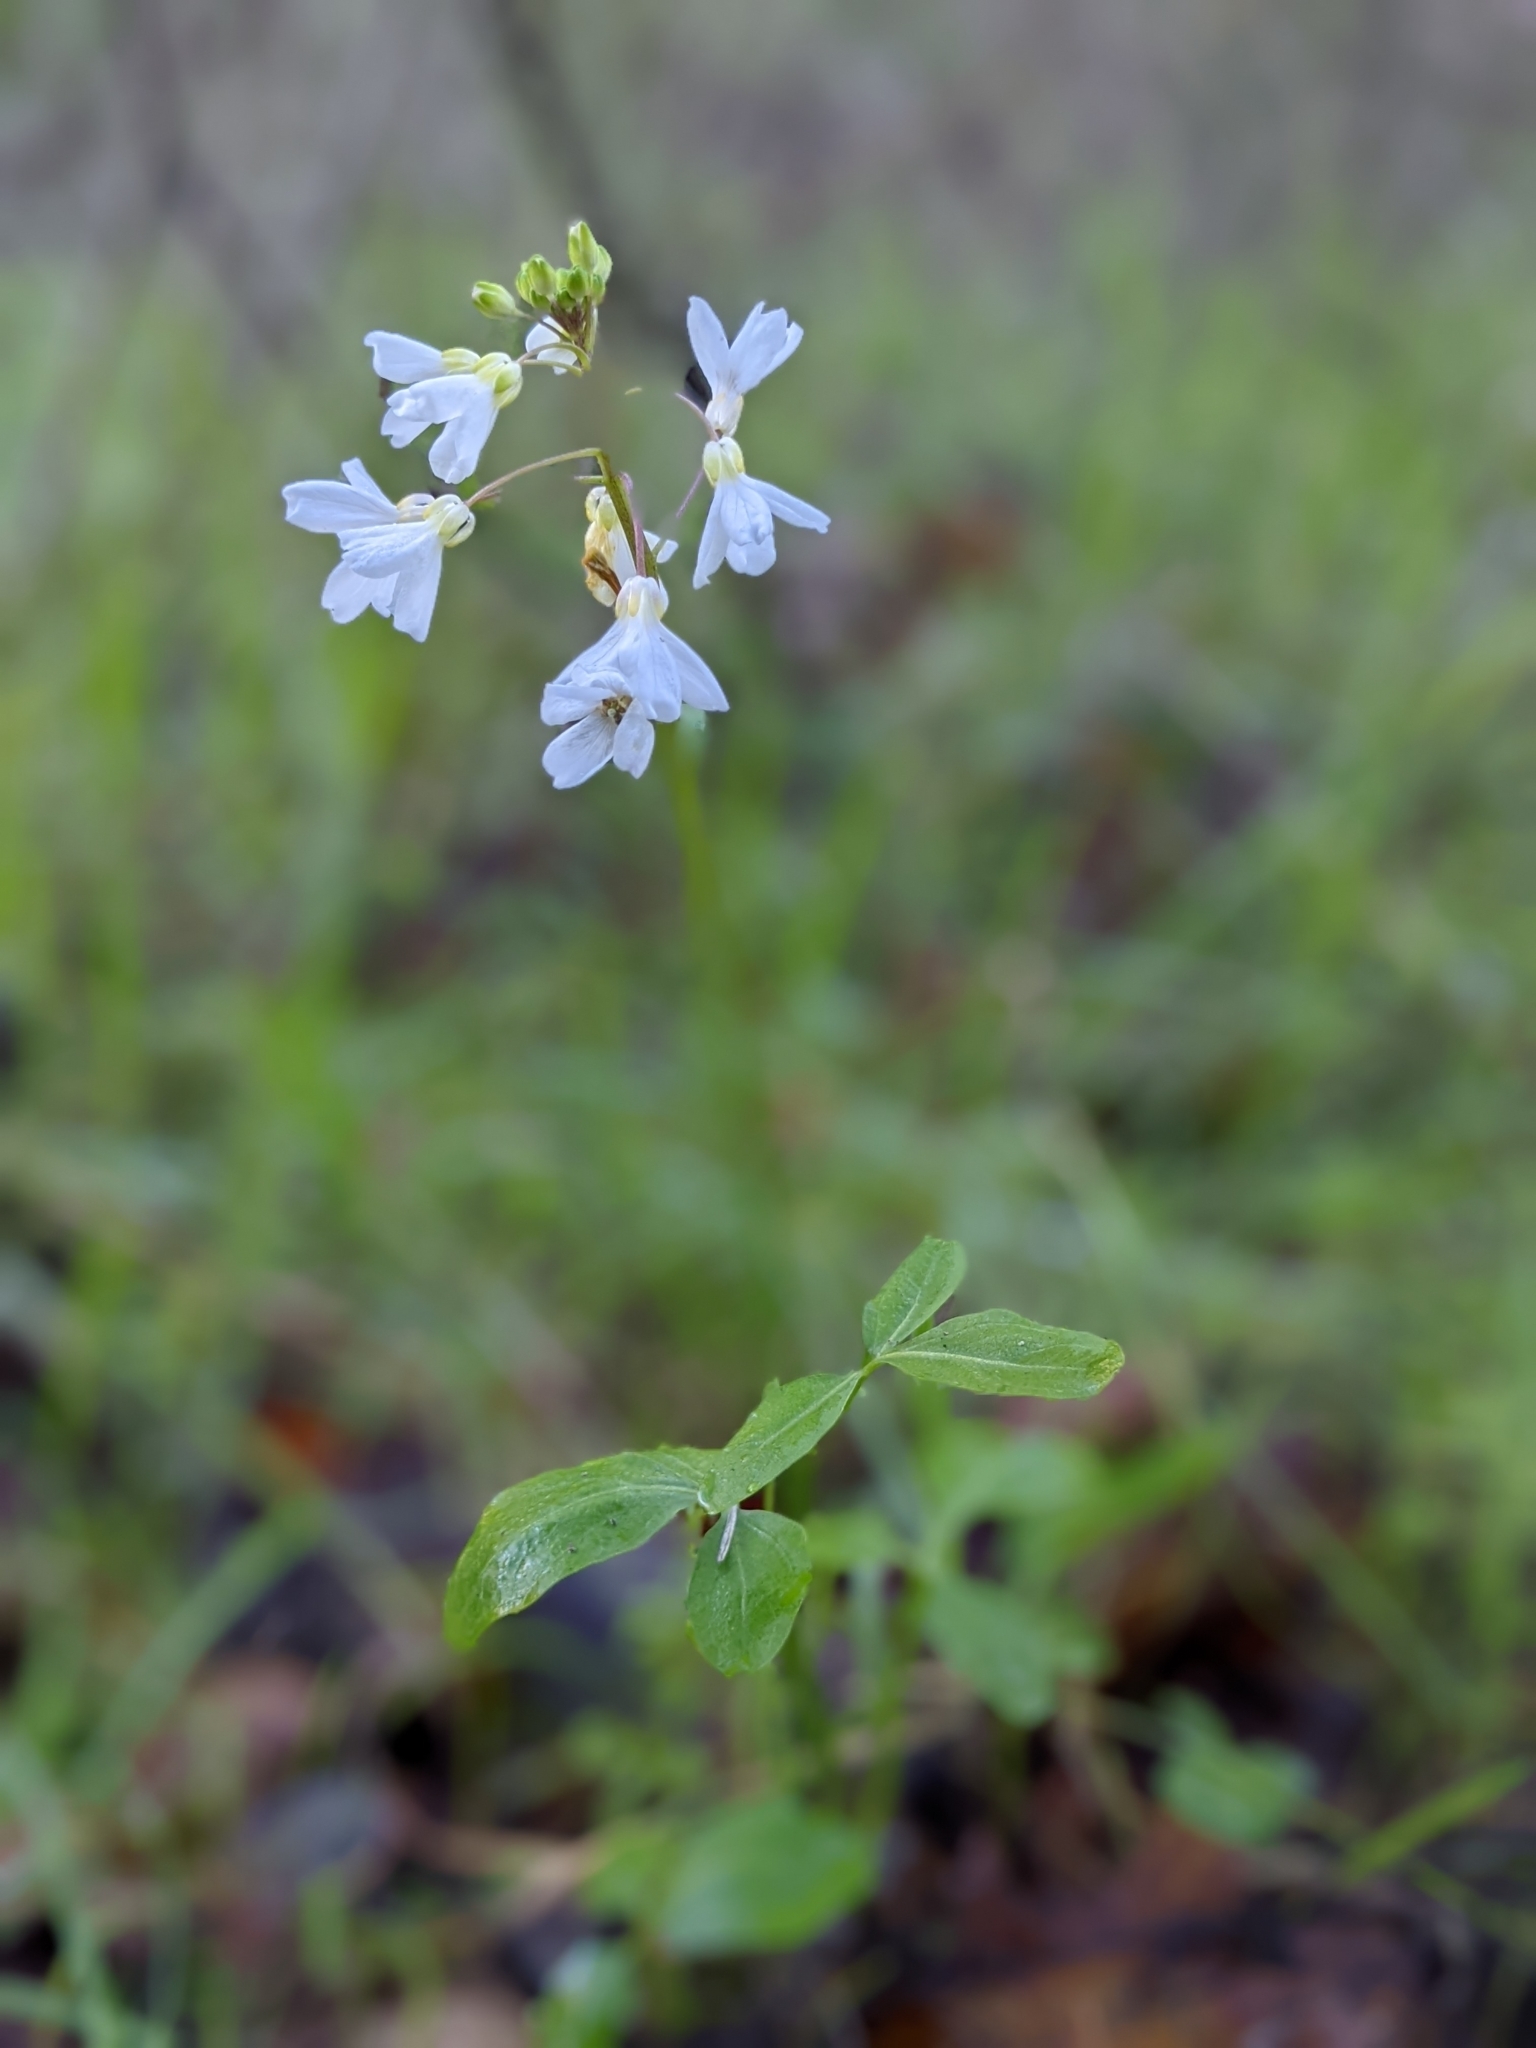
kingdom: Plantae
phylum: Tracheophyta
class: Magnoliopsida
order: Brassicales
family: Brassicaceae
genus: Cardamine
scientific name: Cardamine californica
